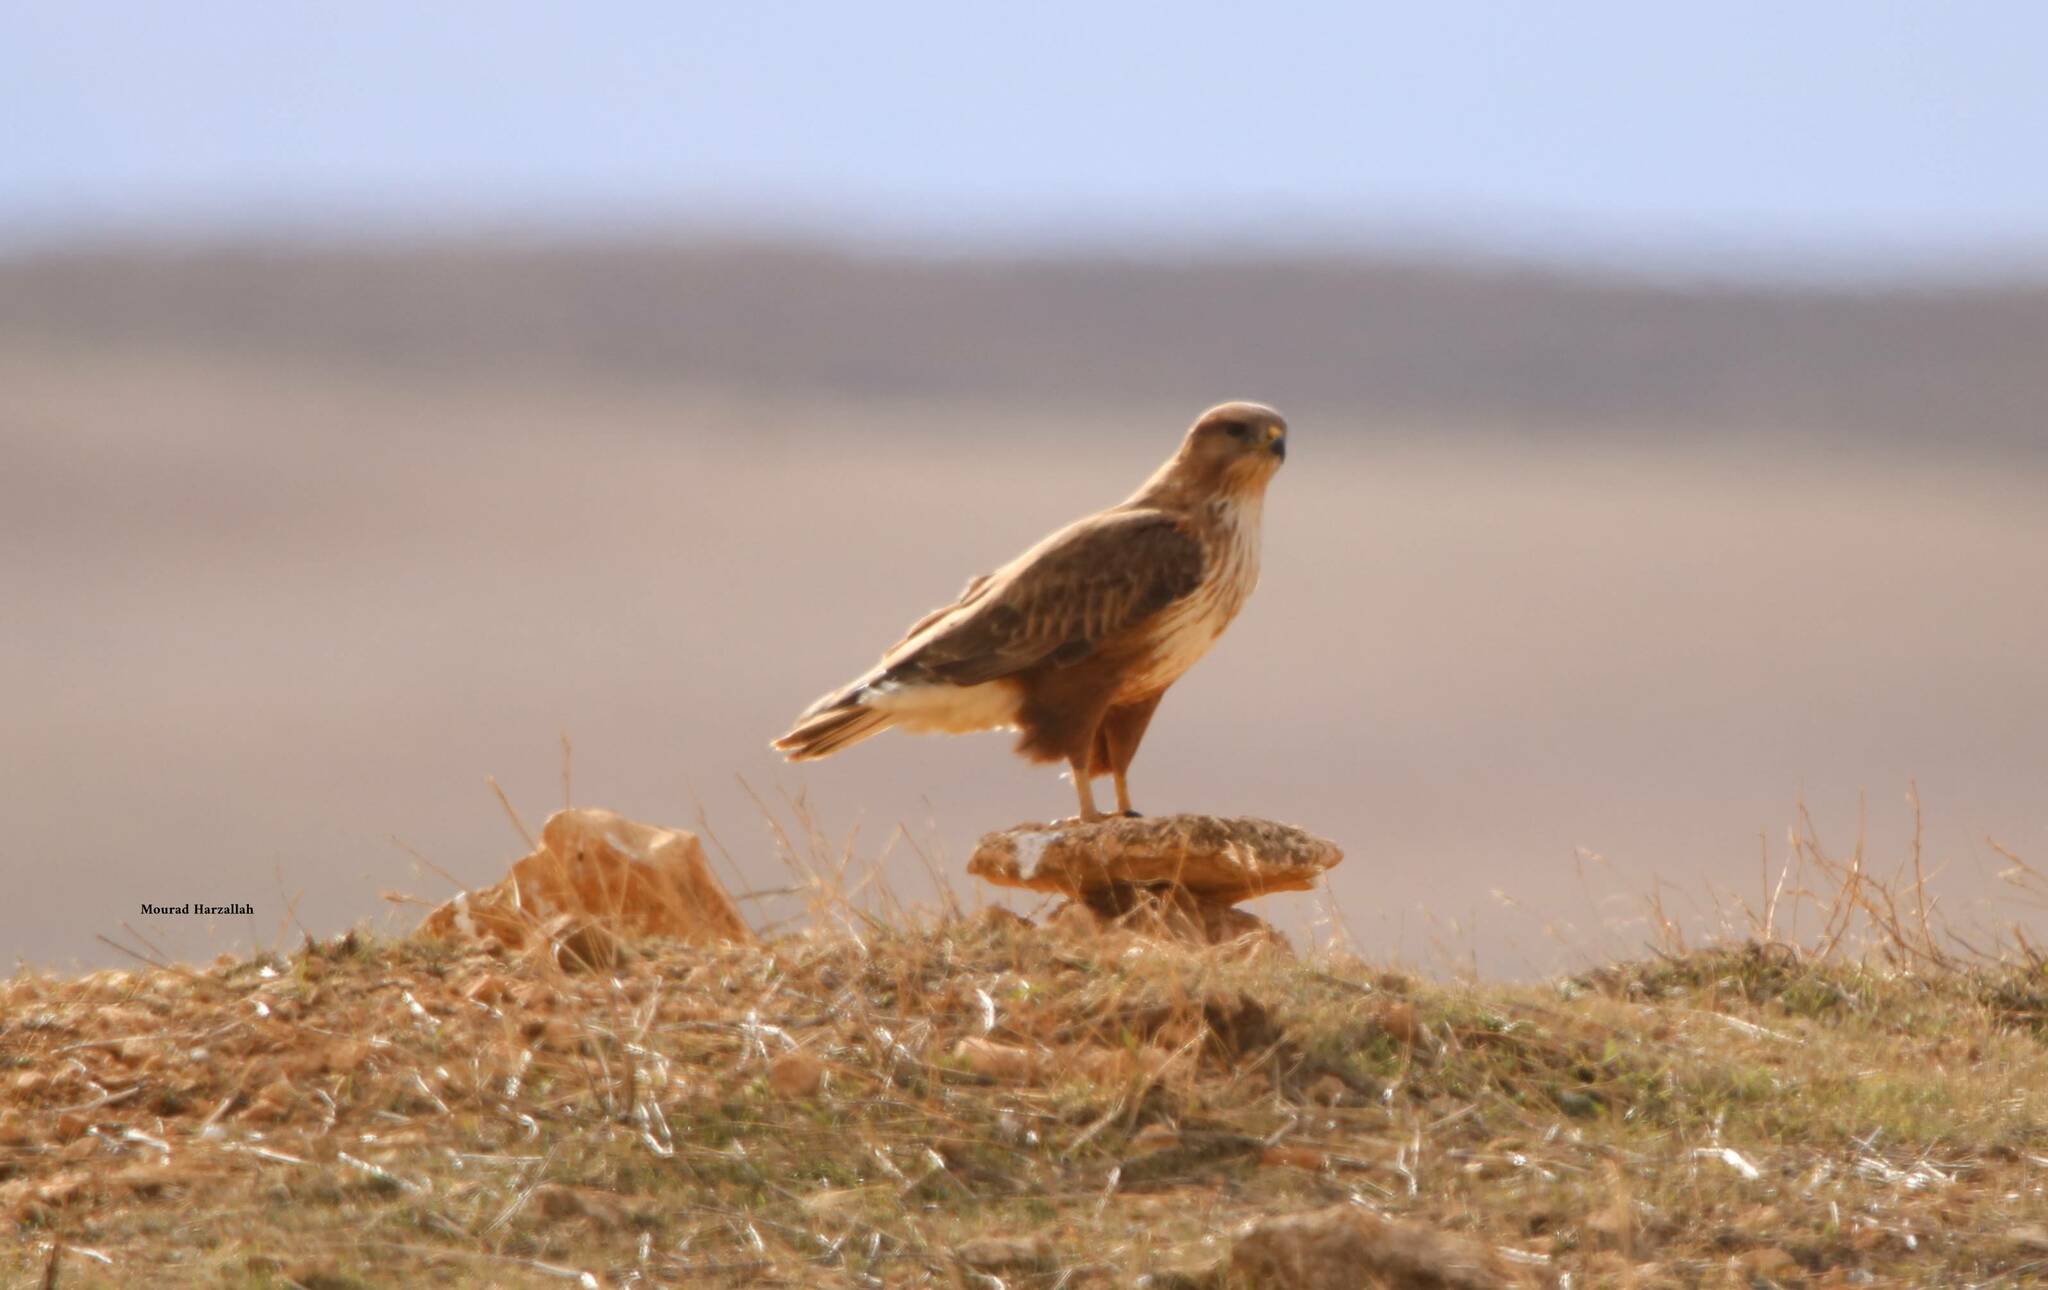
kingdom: Animalia
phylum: Chordata
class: Aves
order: Accipitriformes
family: Accipitridae
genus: Buteo
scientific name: Buteo rufinus
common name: Long-legged buzzard
